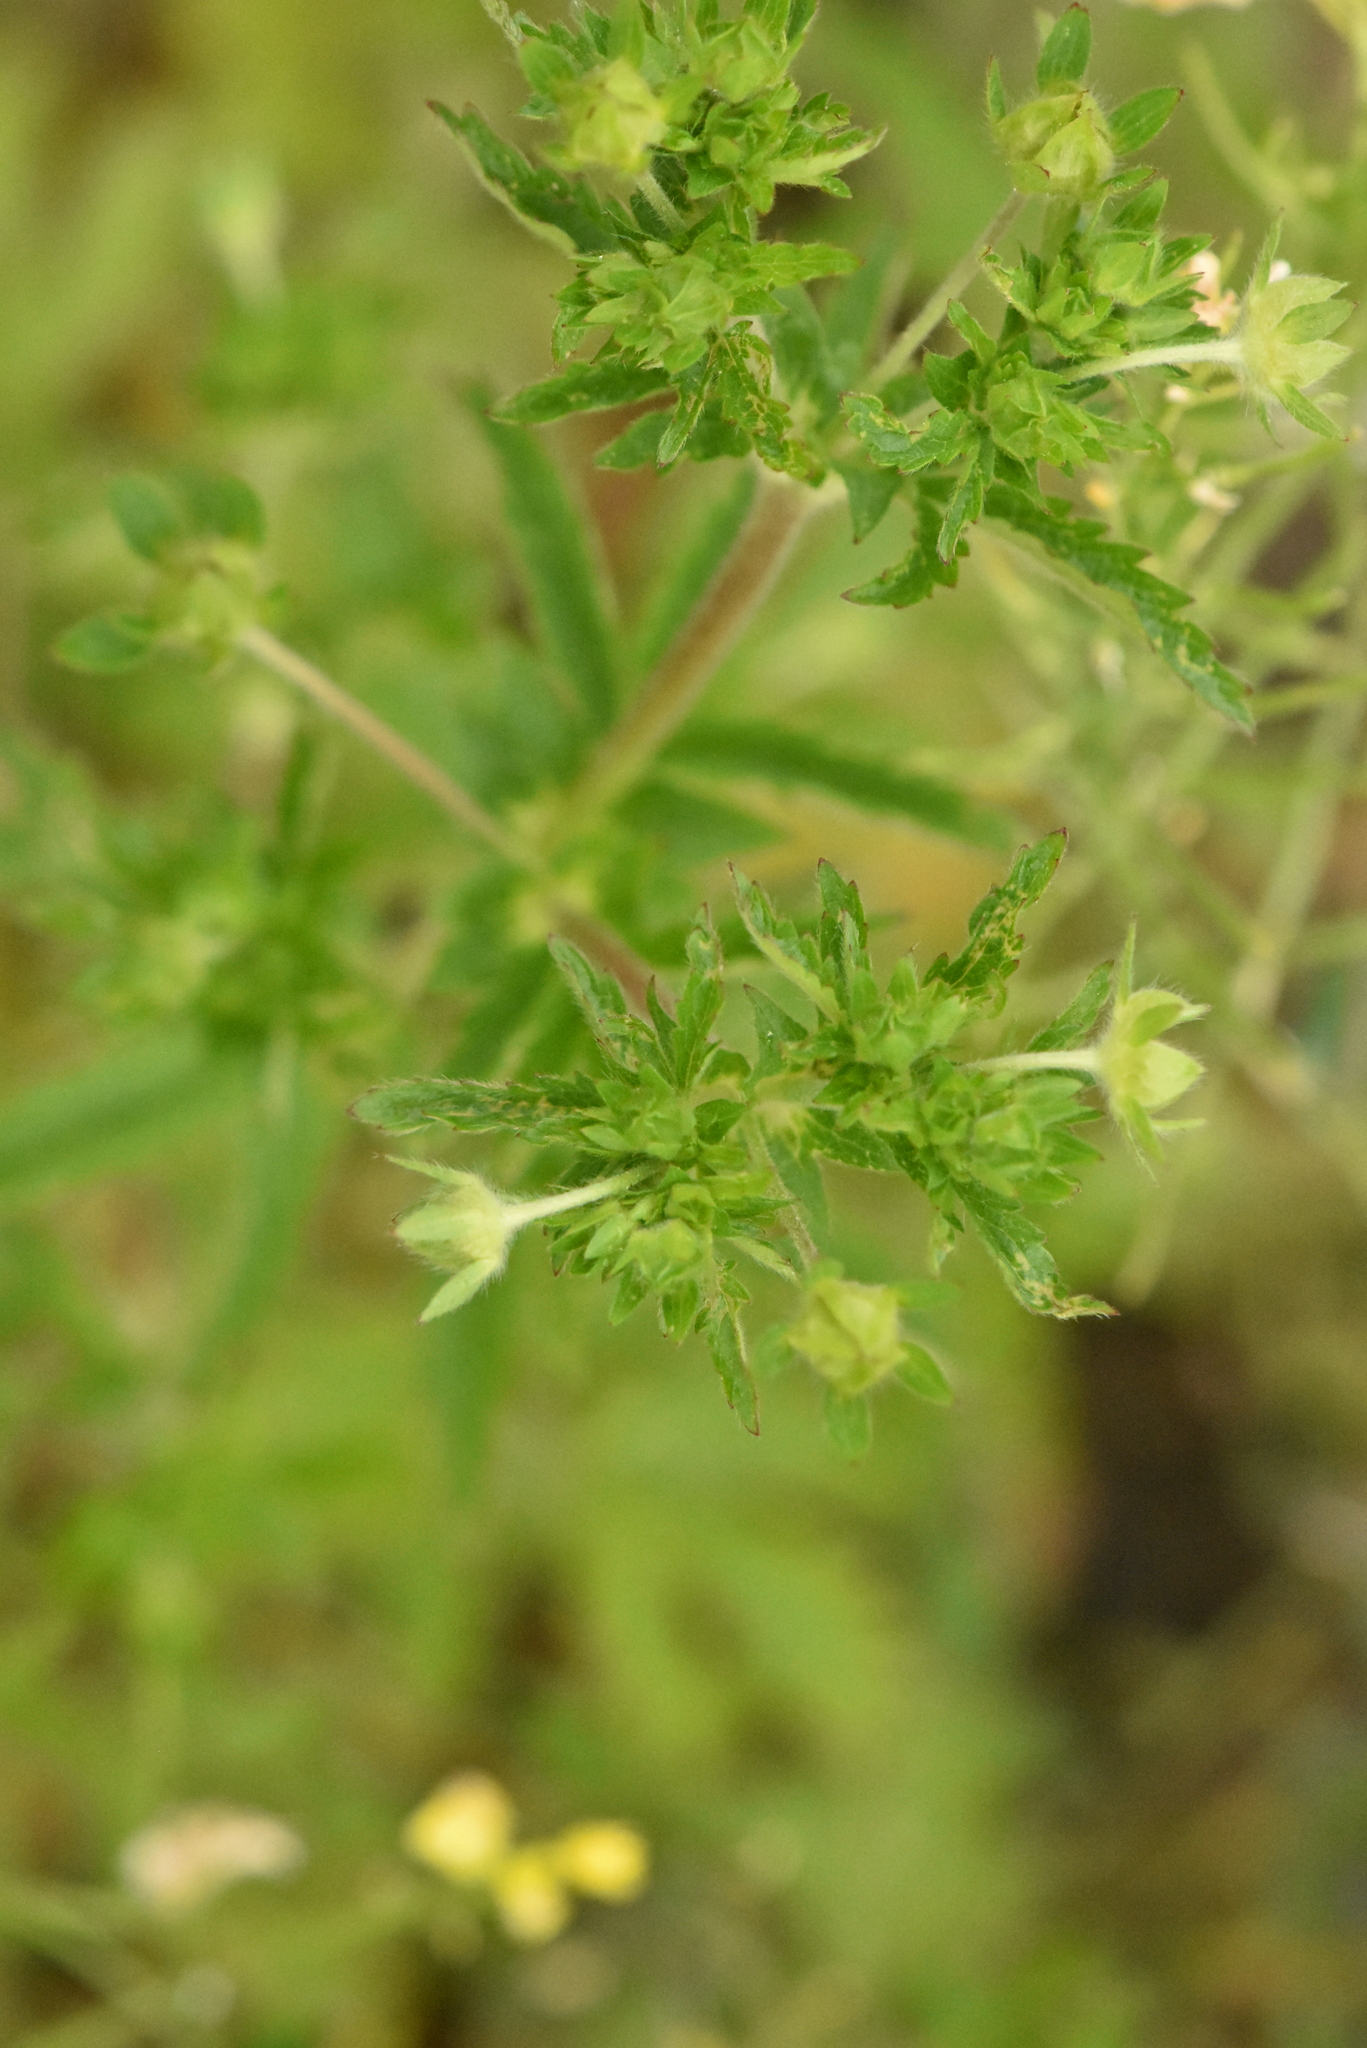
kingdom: Plantae
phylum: Tracheophyta
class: Magnoliopsida
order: Rosales
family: Rosaceae
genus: Potentilla
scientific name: Potentilla norvegica
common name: Ternate-leaved cinquefoil
